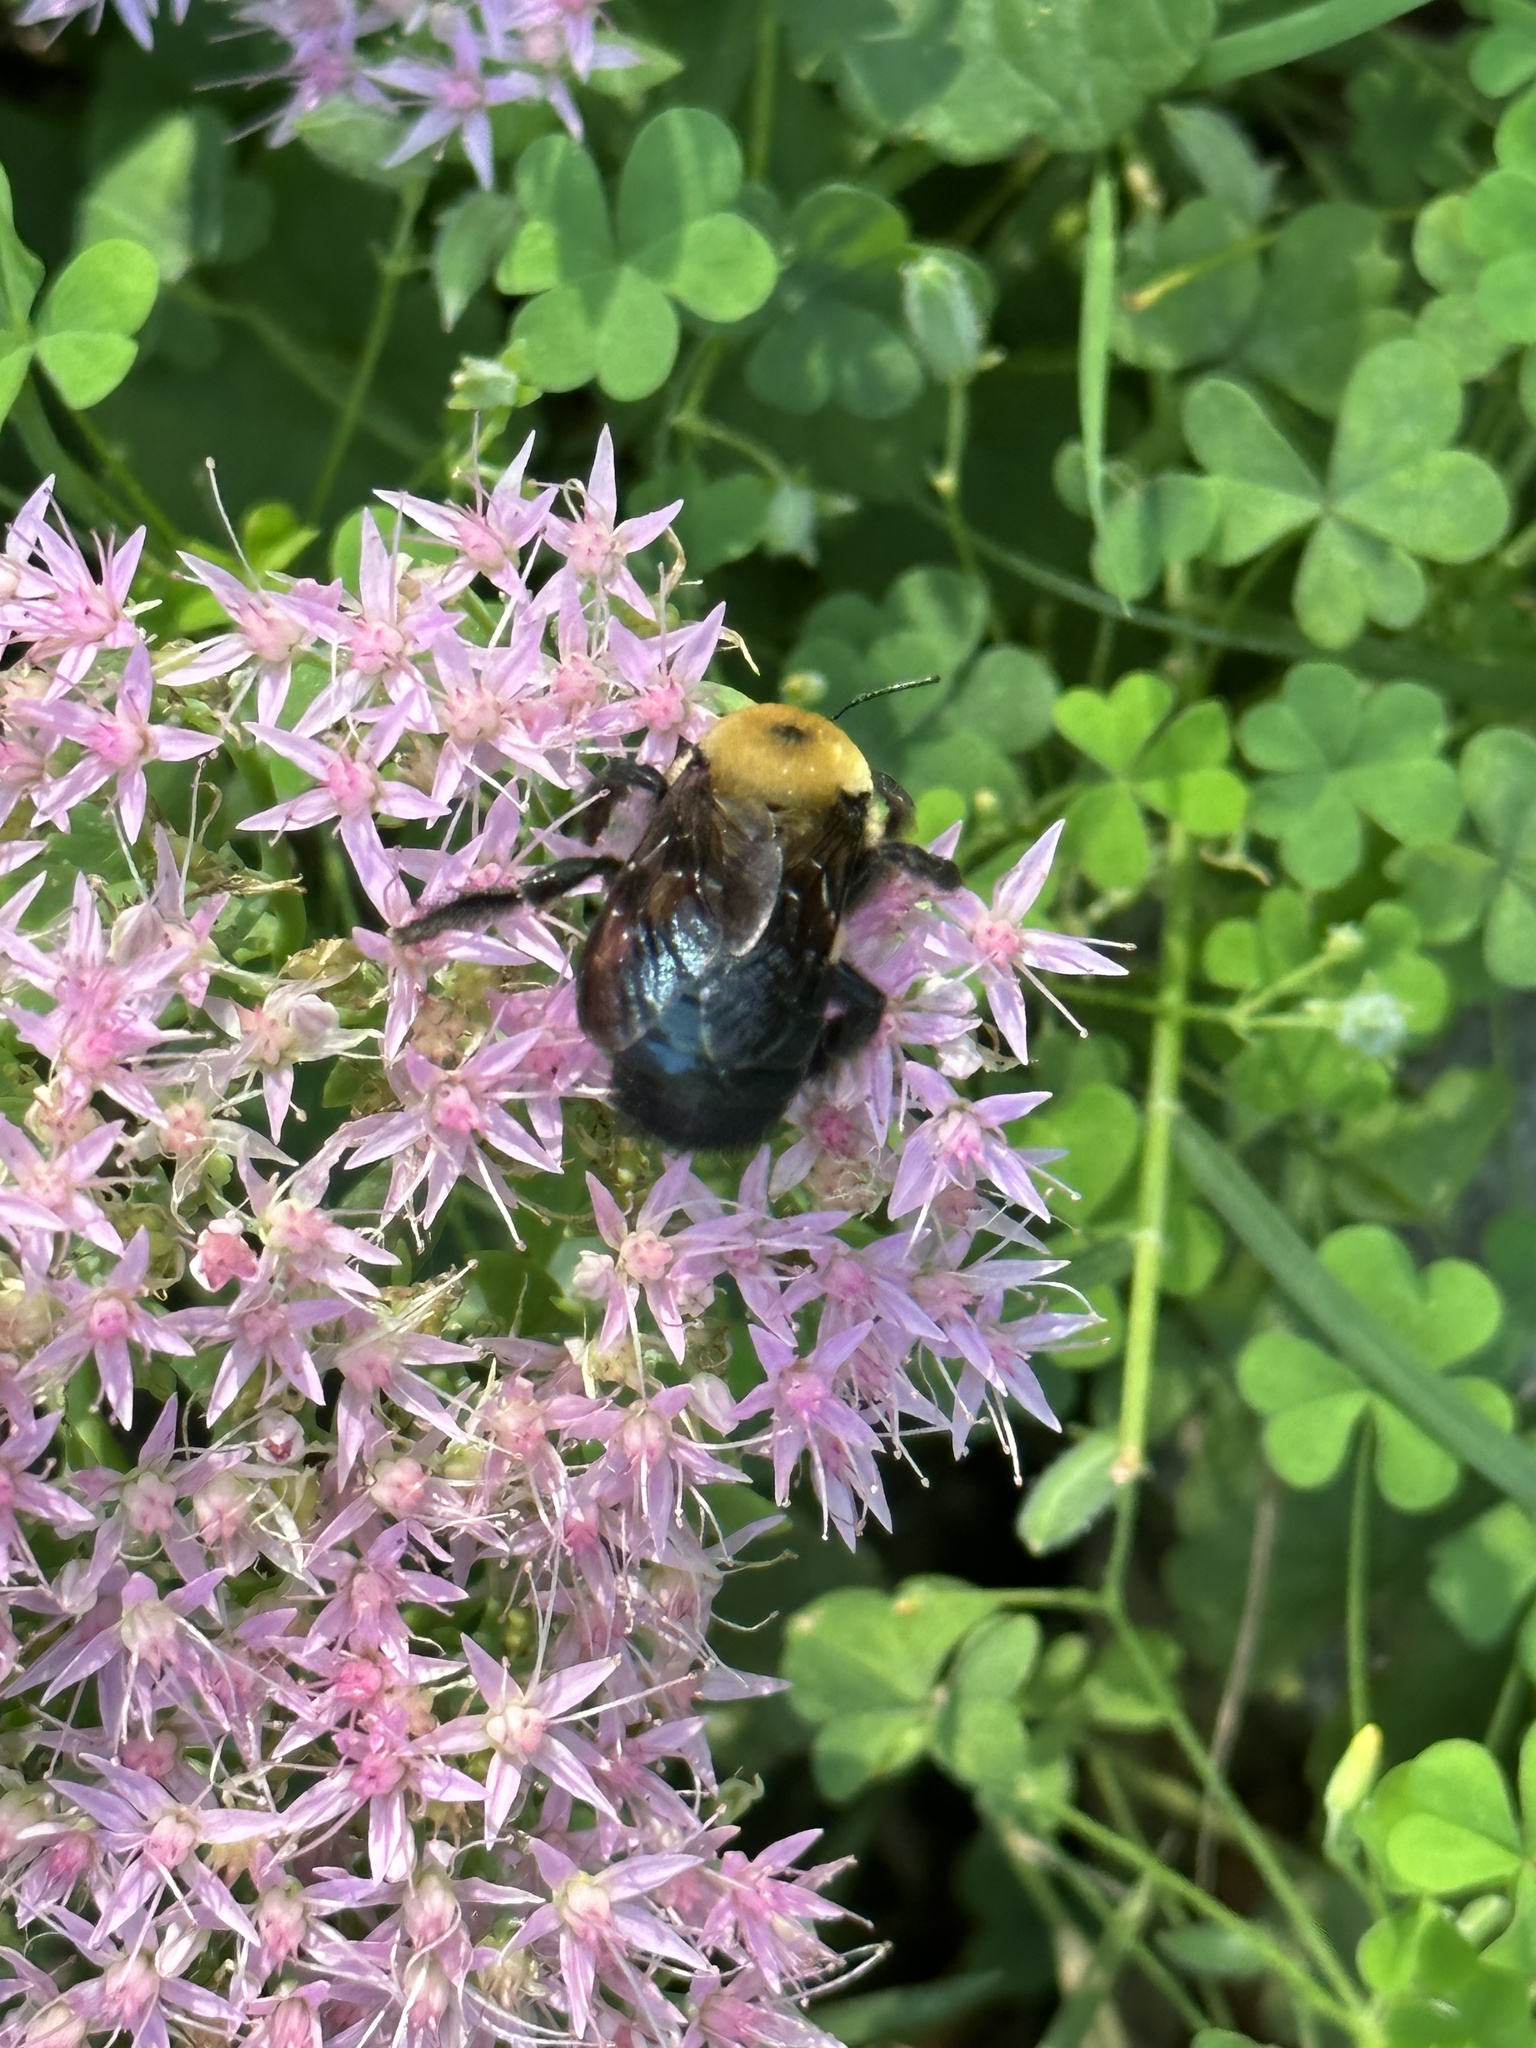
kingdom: Animalia
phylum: Arthropoda
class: Insecta
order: Hymenoptera
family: Apidae
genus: Xylocopa
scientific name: Xylocopa virginica
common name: Carpenter bee
